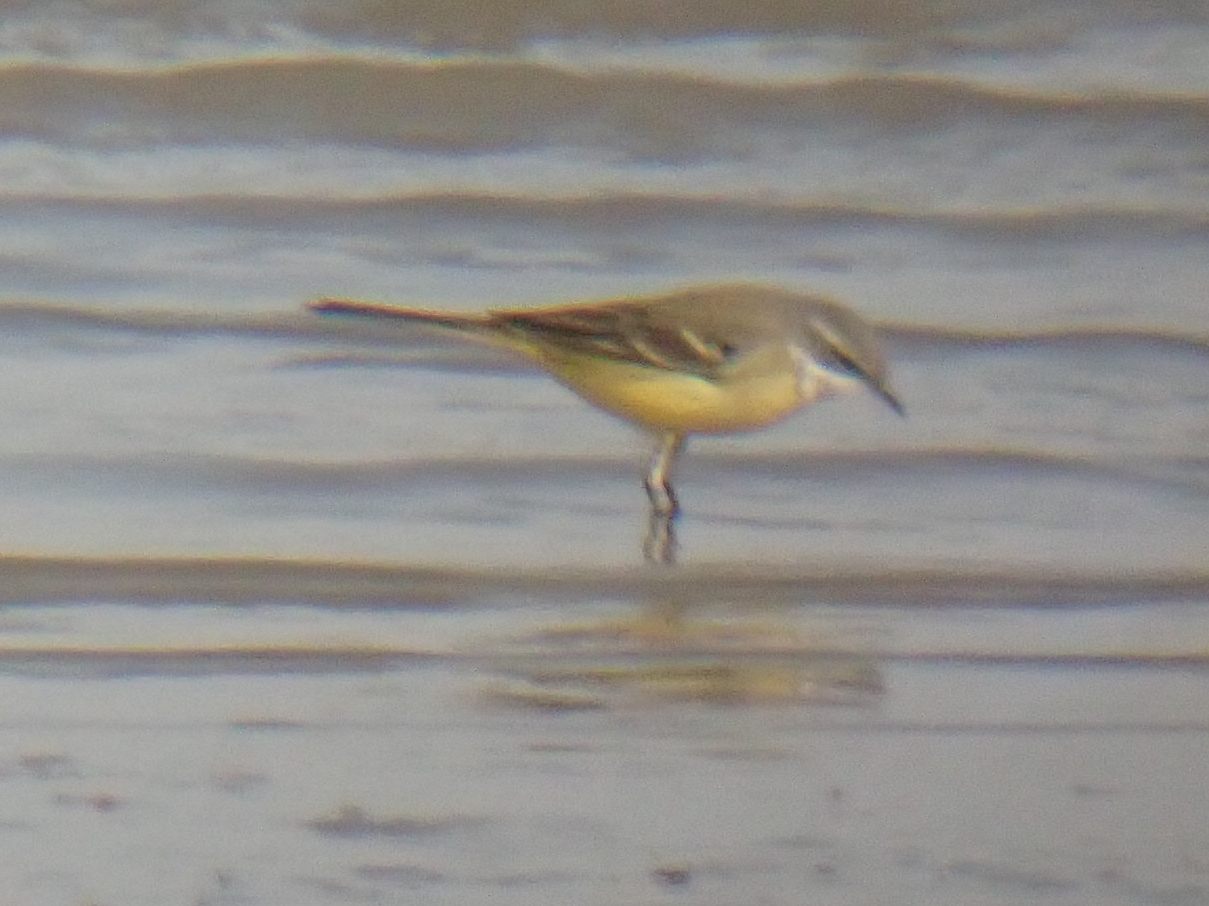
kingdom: Animalia
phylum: Chordata
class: Aves
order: Passeriformes
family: Motacillidae
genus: Motacilla
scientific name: Motacilla flava
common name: Western yellow wagtail
